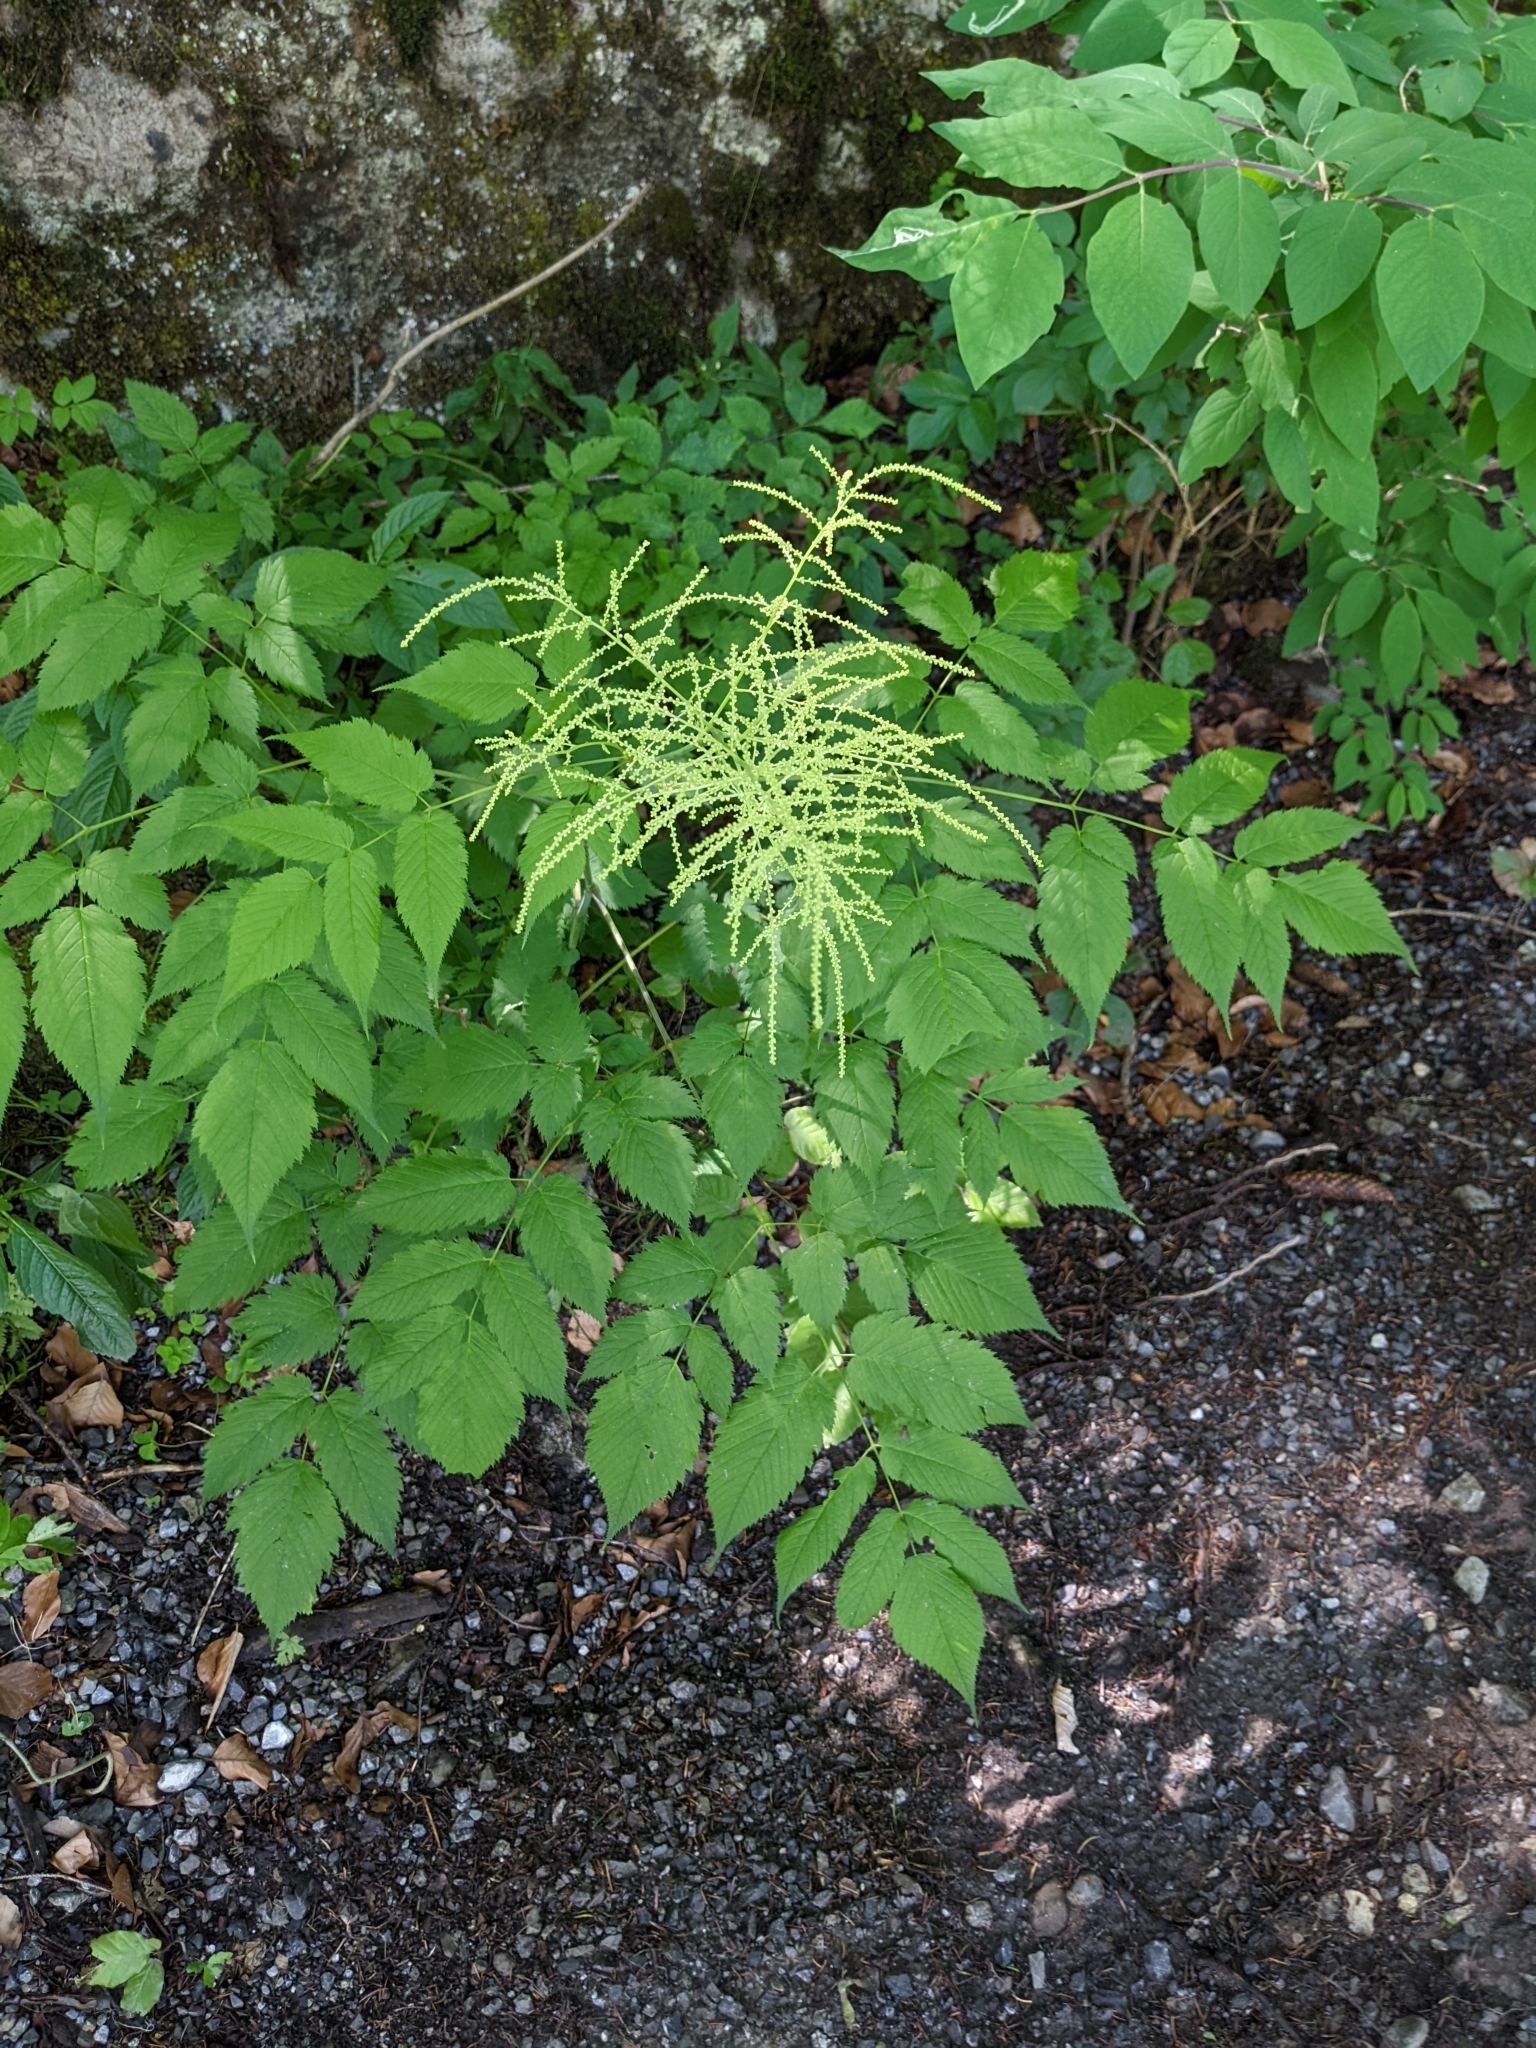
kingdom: Plantae
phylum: Tracheophyta
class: Magnoliopsida
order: Rosales
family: Rosaceae
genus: Aruncus
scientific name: Aruncus dioicus
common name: Buck's-beard
